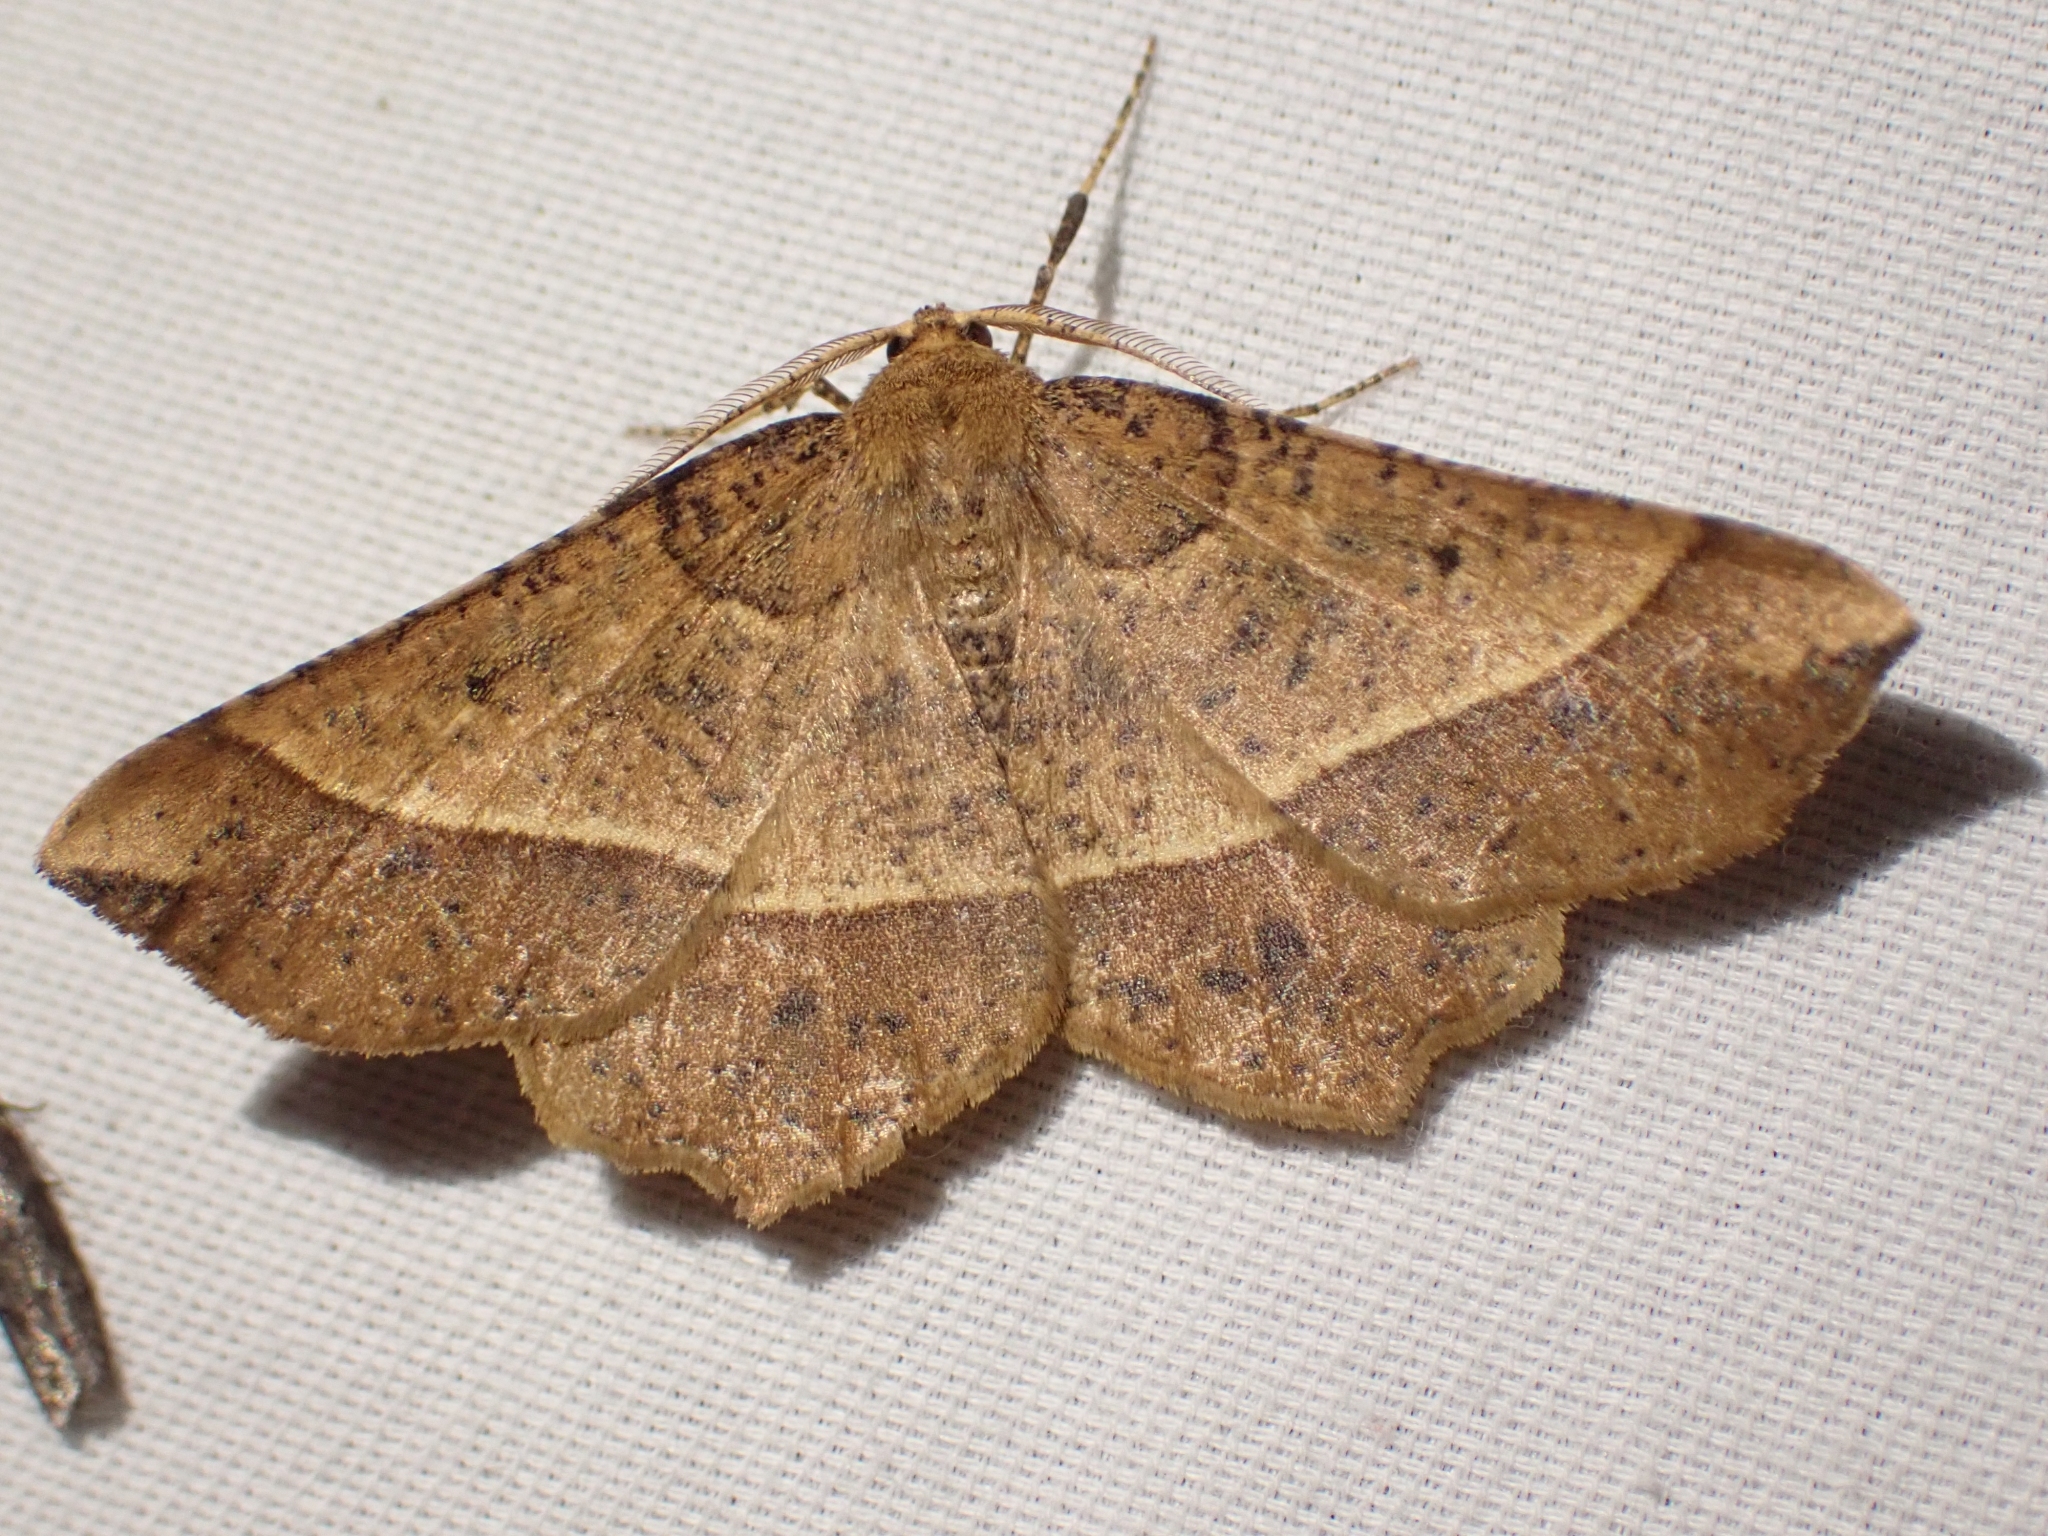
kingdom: Animalia
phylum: Arthropoda
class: Insecta
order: Lepidoptera
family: Geometridae
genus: Euchlaena
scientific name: Euchlaena tigrinaria
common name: Mottled euchlaena moth
